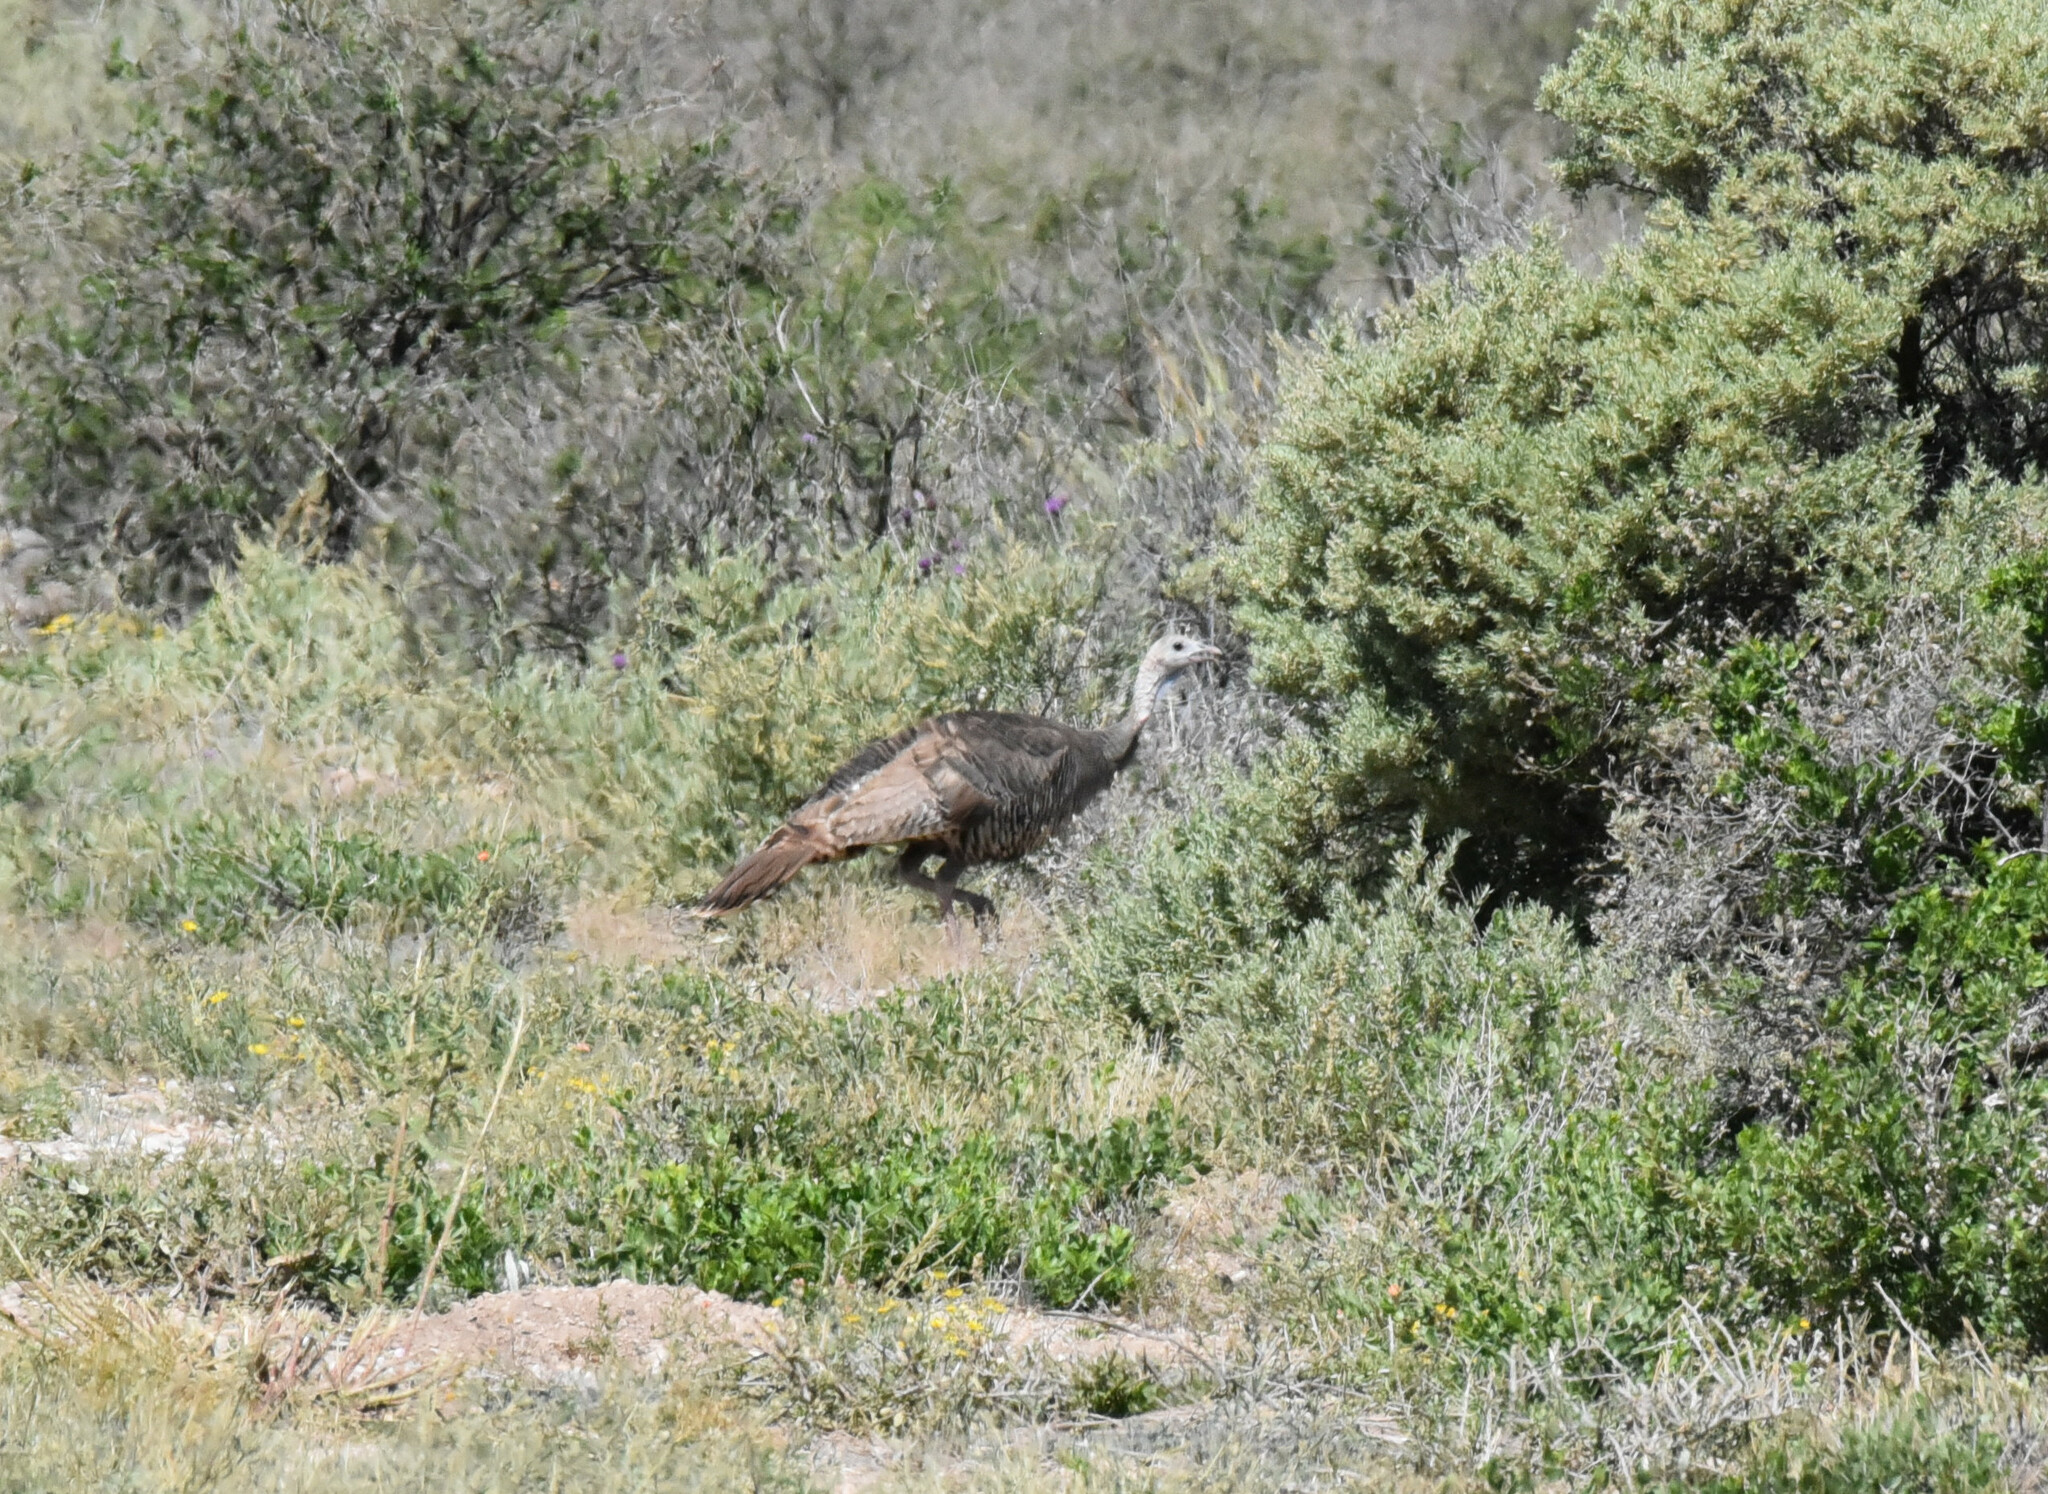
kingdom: Animalia
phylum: Chordata
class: Aves
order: Galliformes
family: Phasianidae
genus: Meleagris
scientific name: Meleagris gallopavo
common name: Wild turkey
